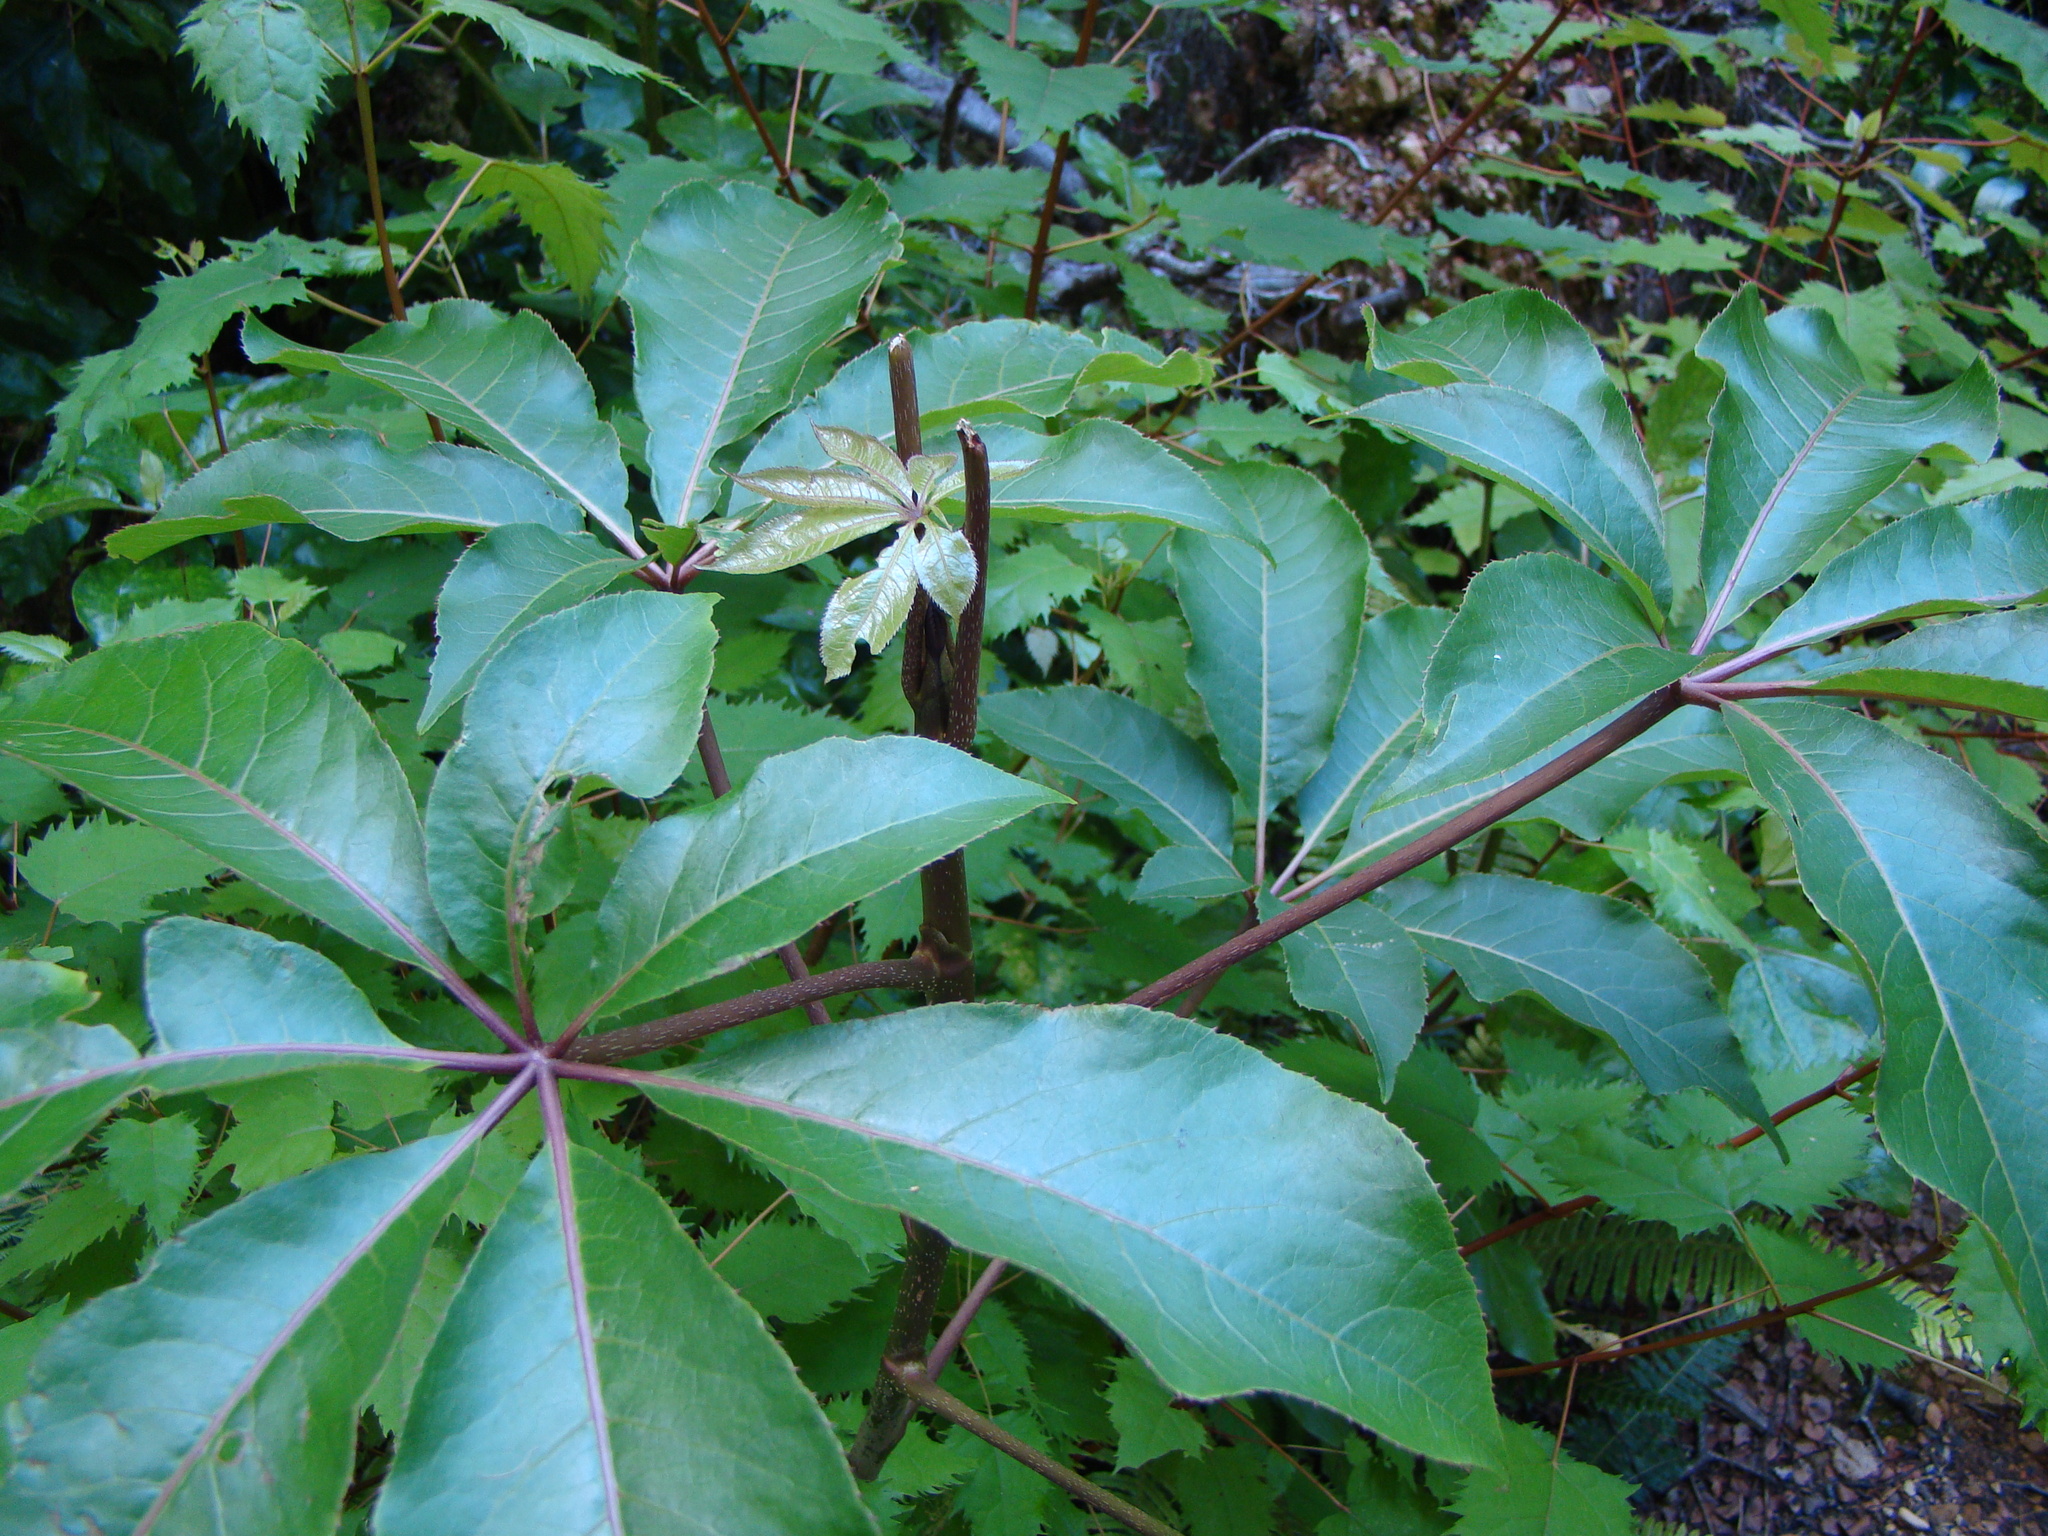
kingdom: Plantae
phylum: Tracheophyta
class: Magnoliopsida
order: Apiales
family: Araliaceae
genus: Schefflera
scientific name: Schefflera digitata
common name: Pate
